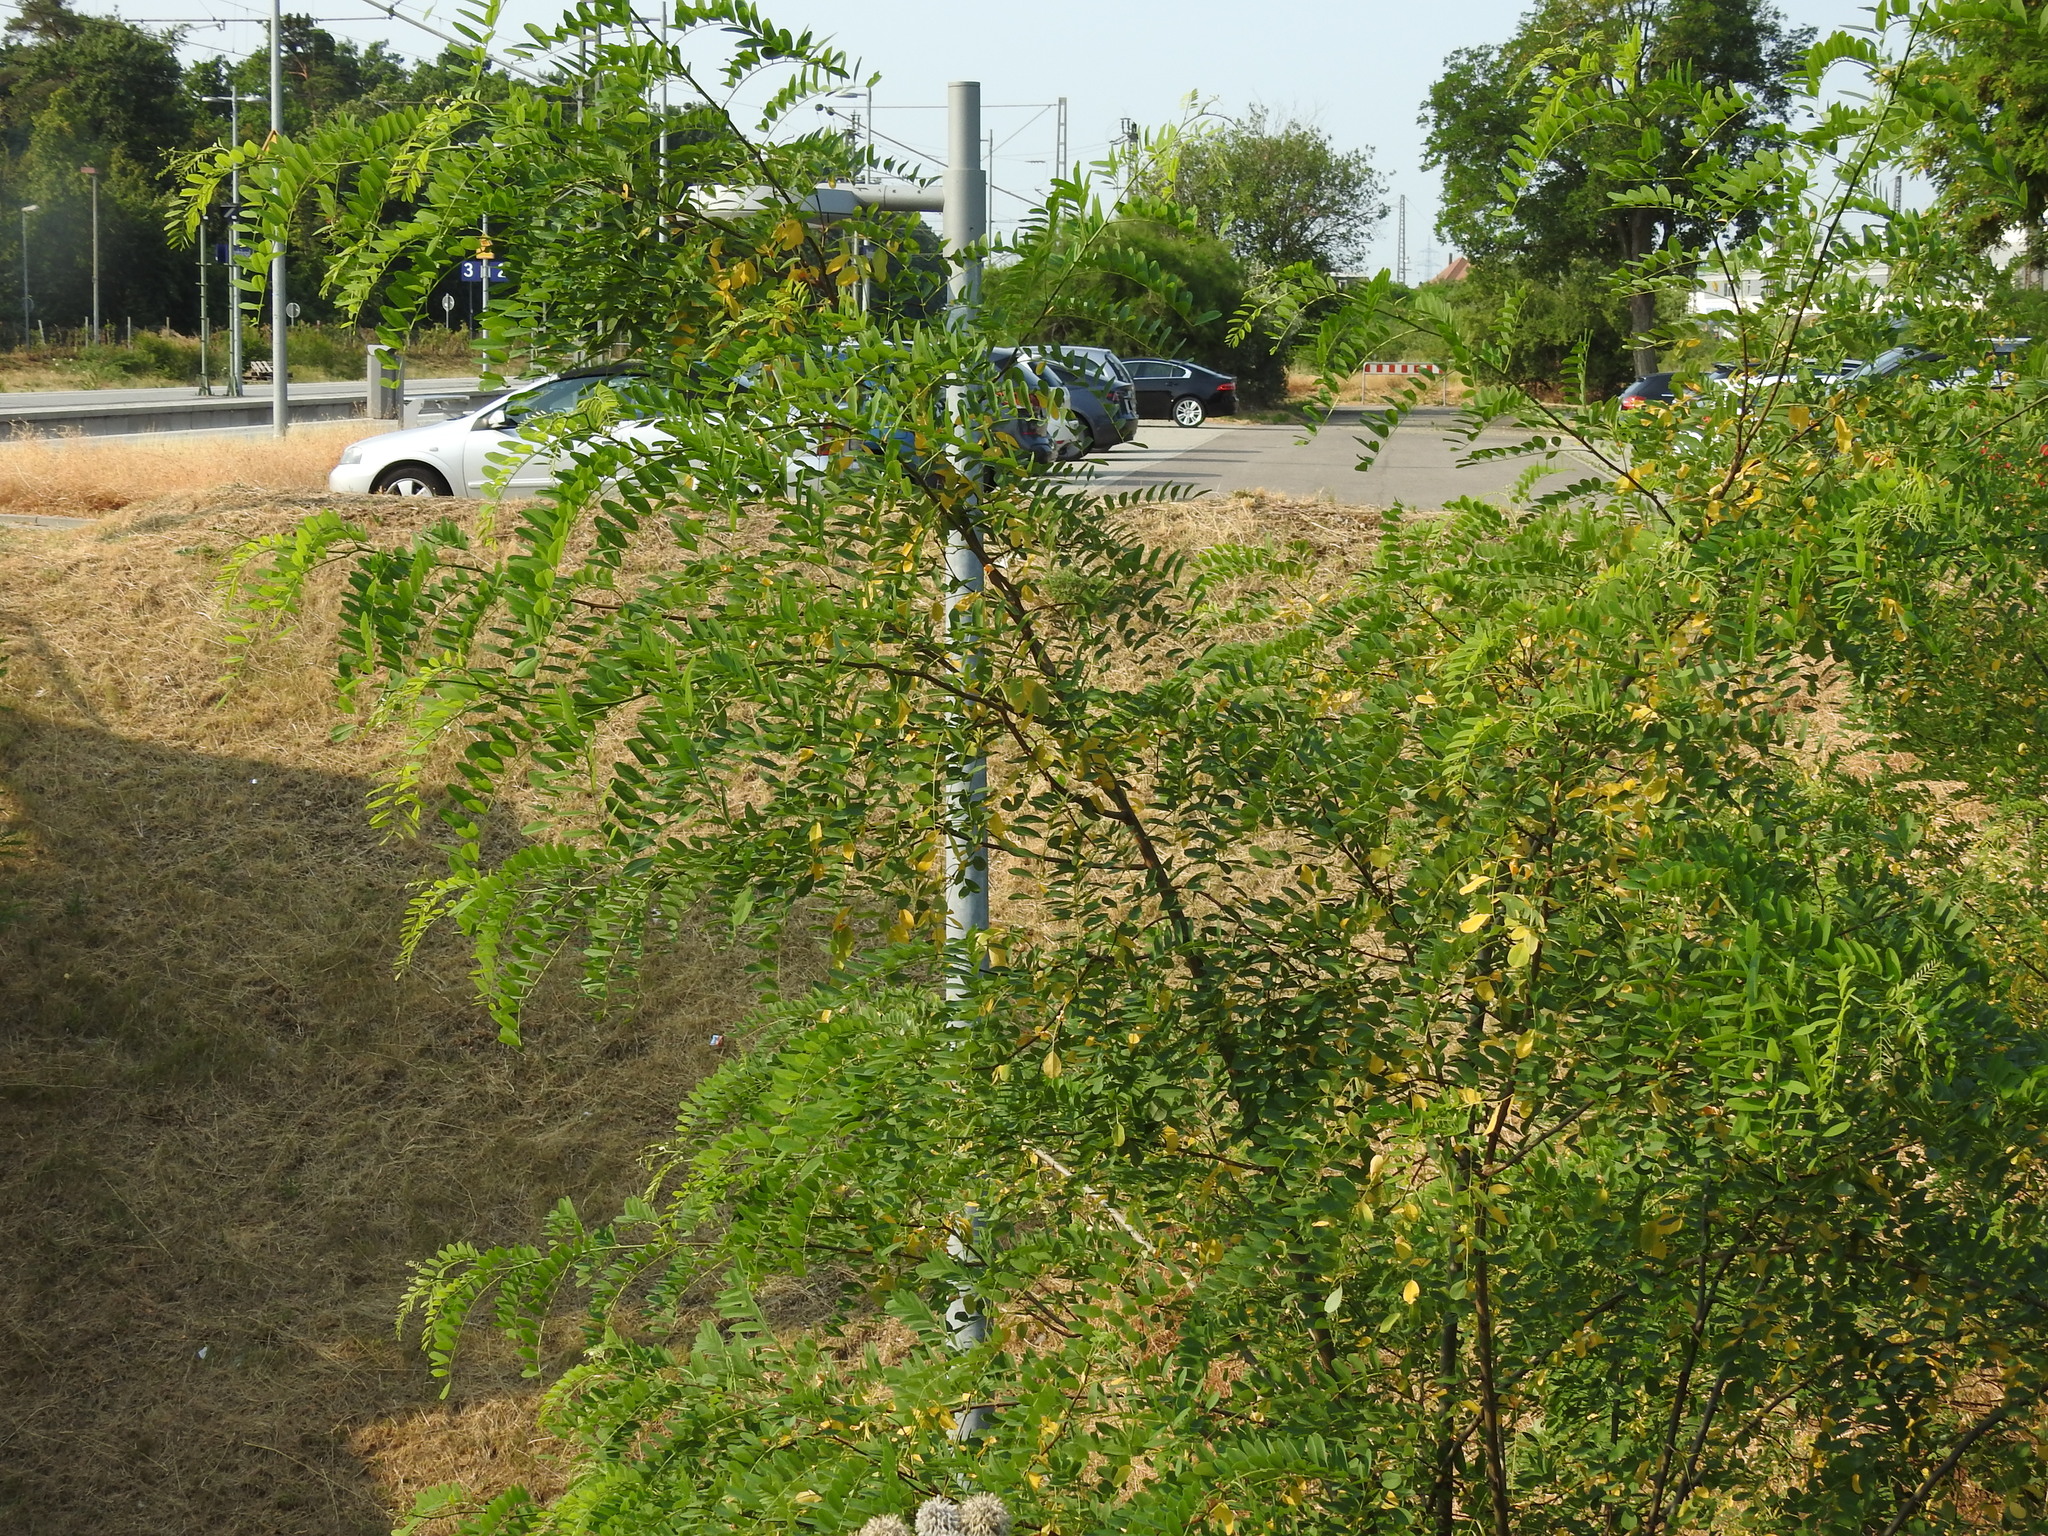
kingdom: Plantae
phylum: Tracheophyta
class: Magnoliopsida
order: Fabales
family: Fabaceae
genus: Robinia
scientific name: Robinia pseudoacacia
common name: Black locust
